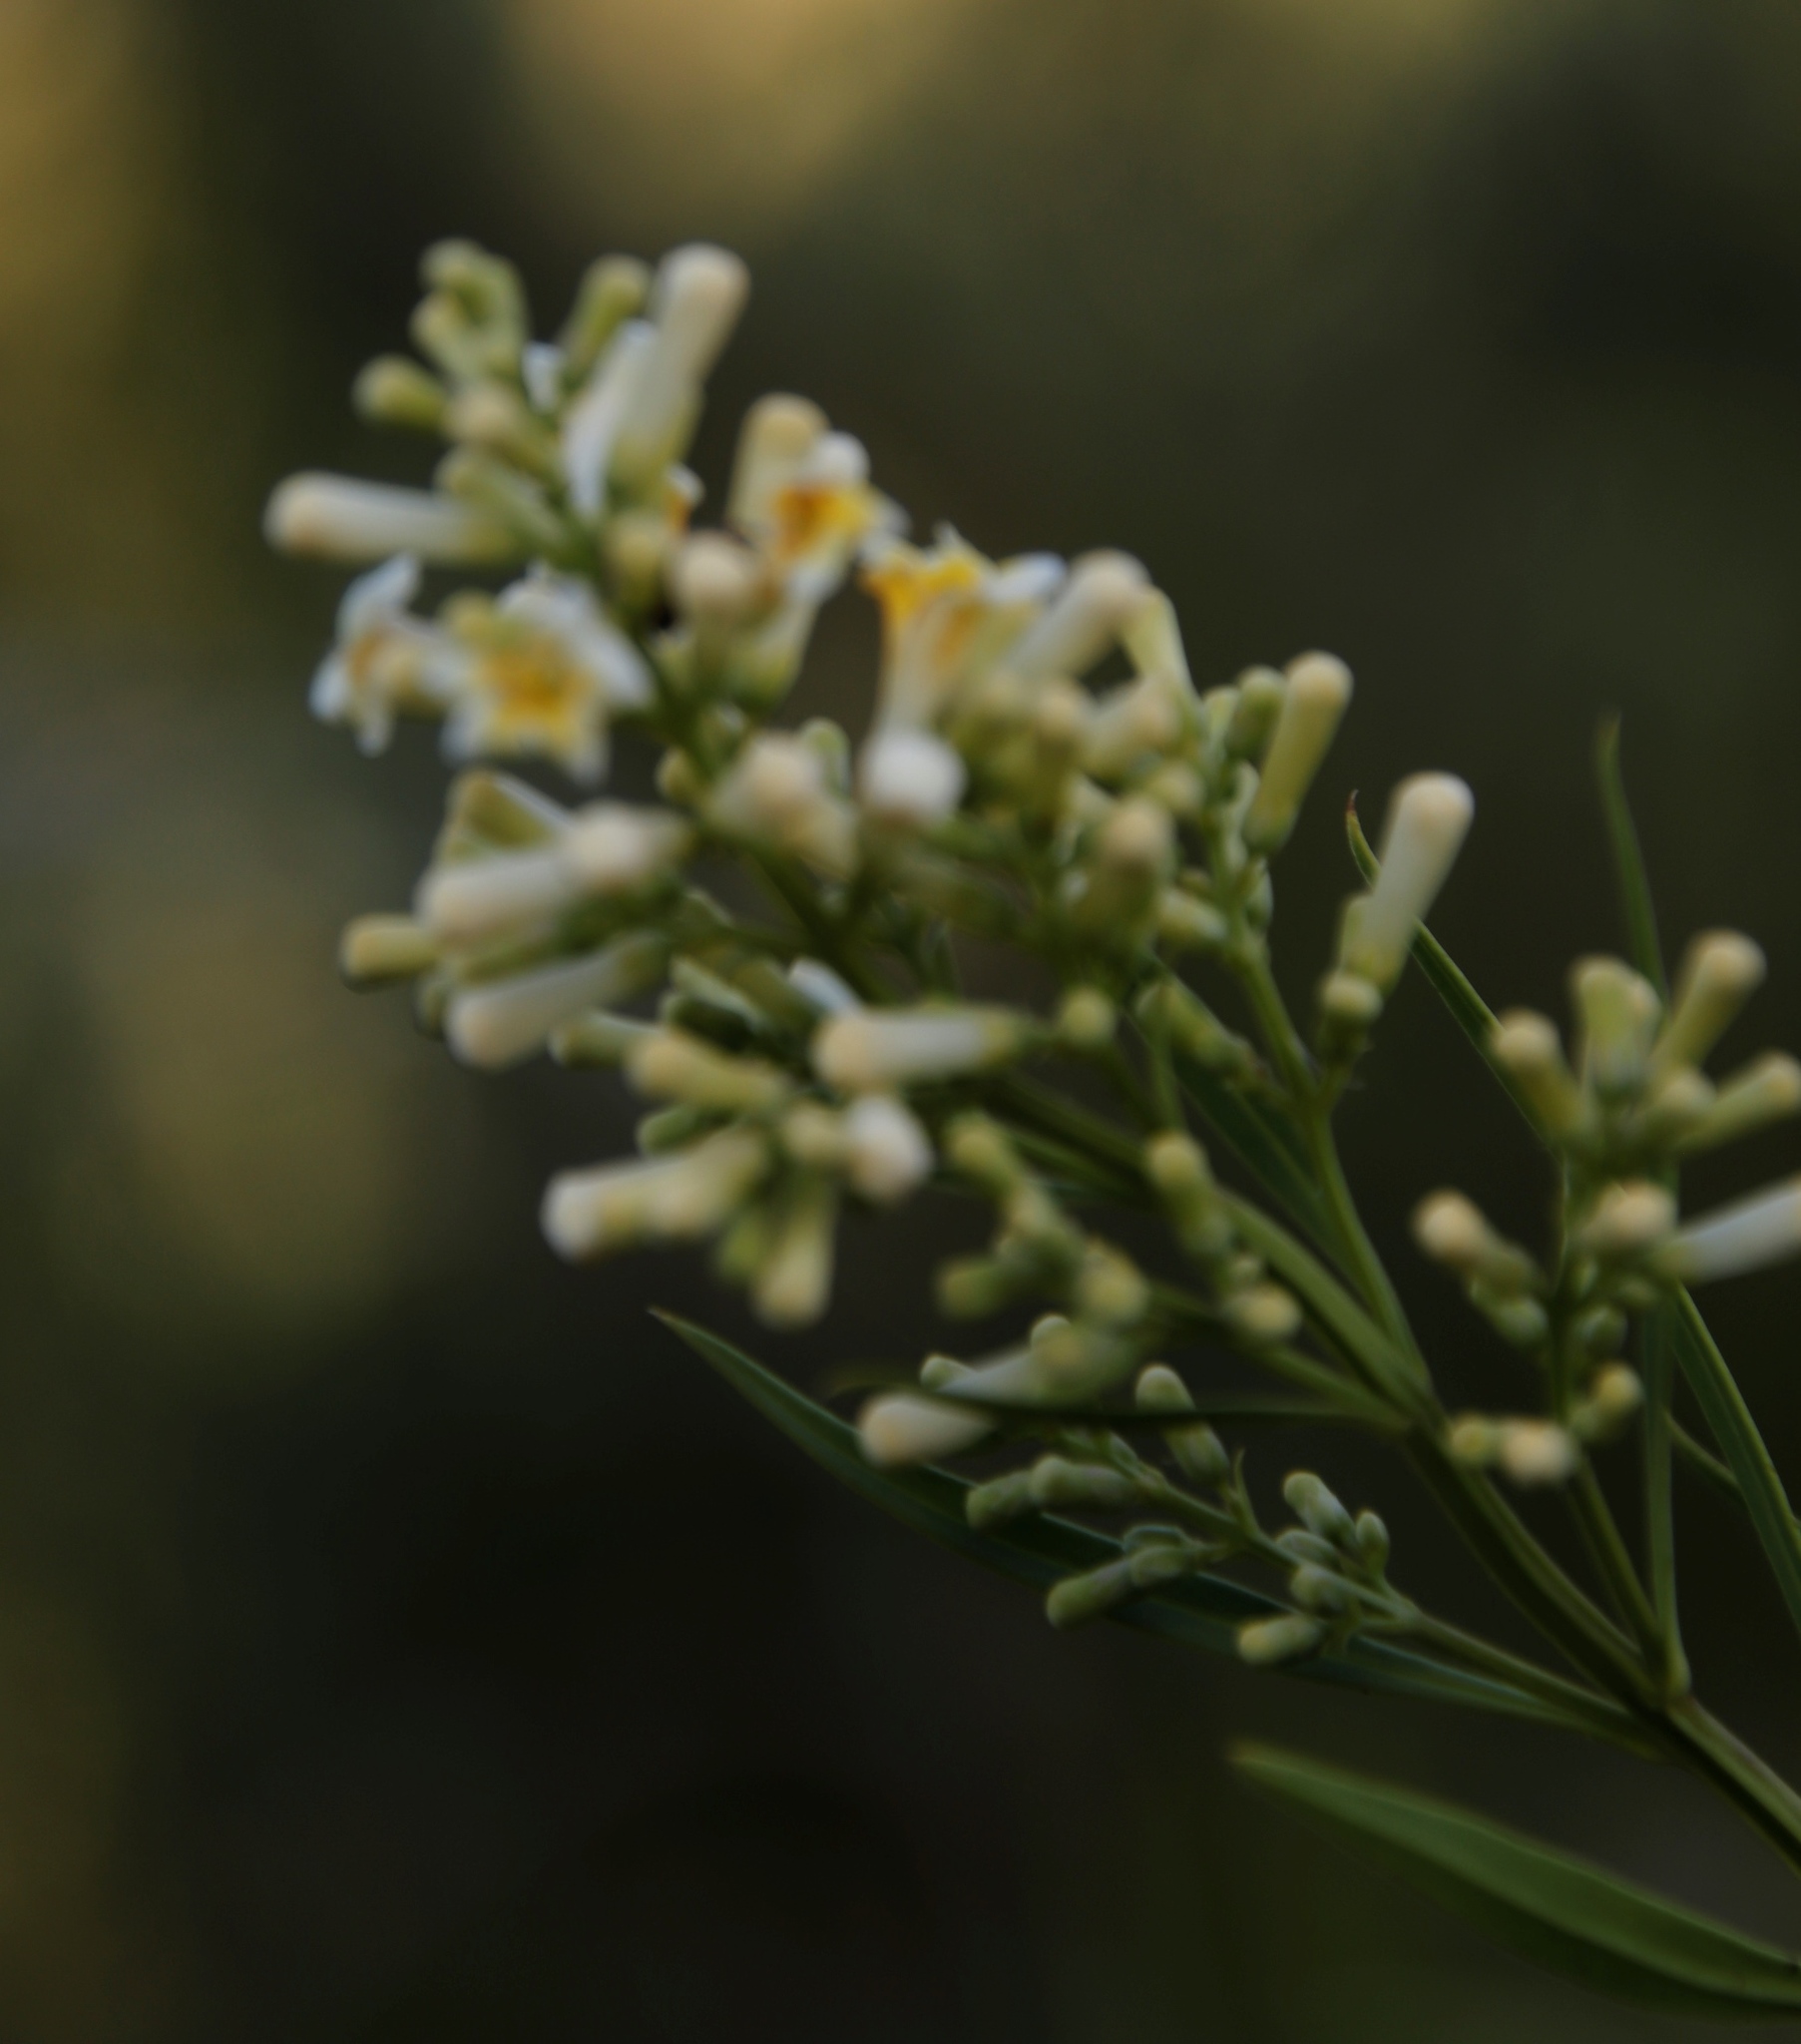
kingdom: Plantae
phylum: Tracheophyta
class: Magnoliopsida
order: Lamiales
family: Scrophulariaceae
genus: Freylinia
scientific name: Freylinia lanceolata
